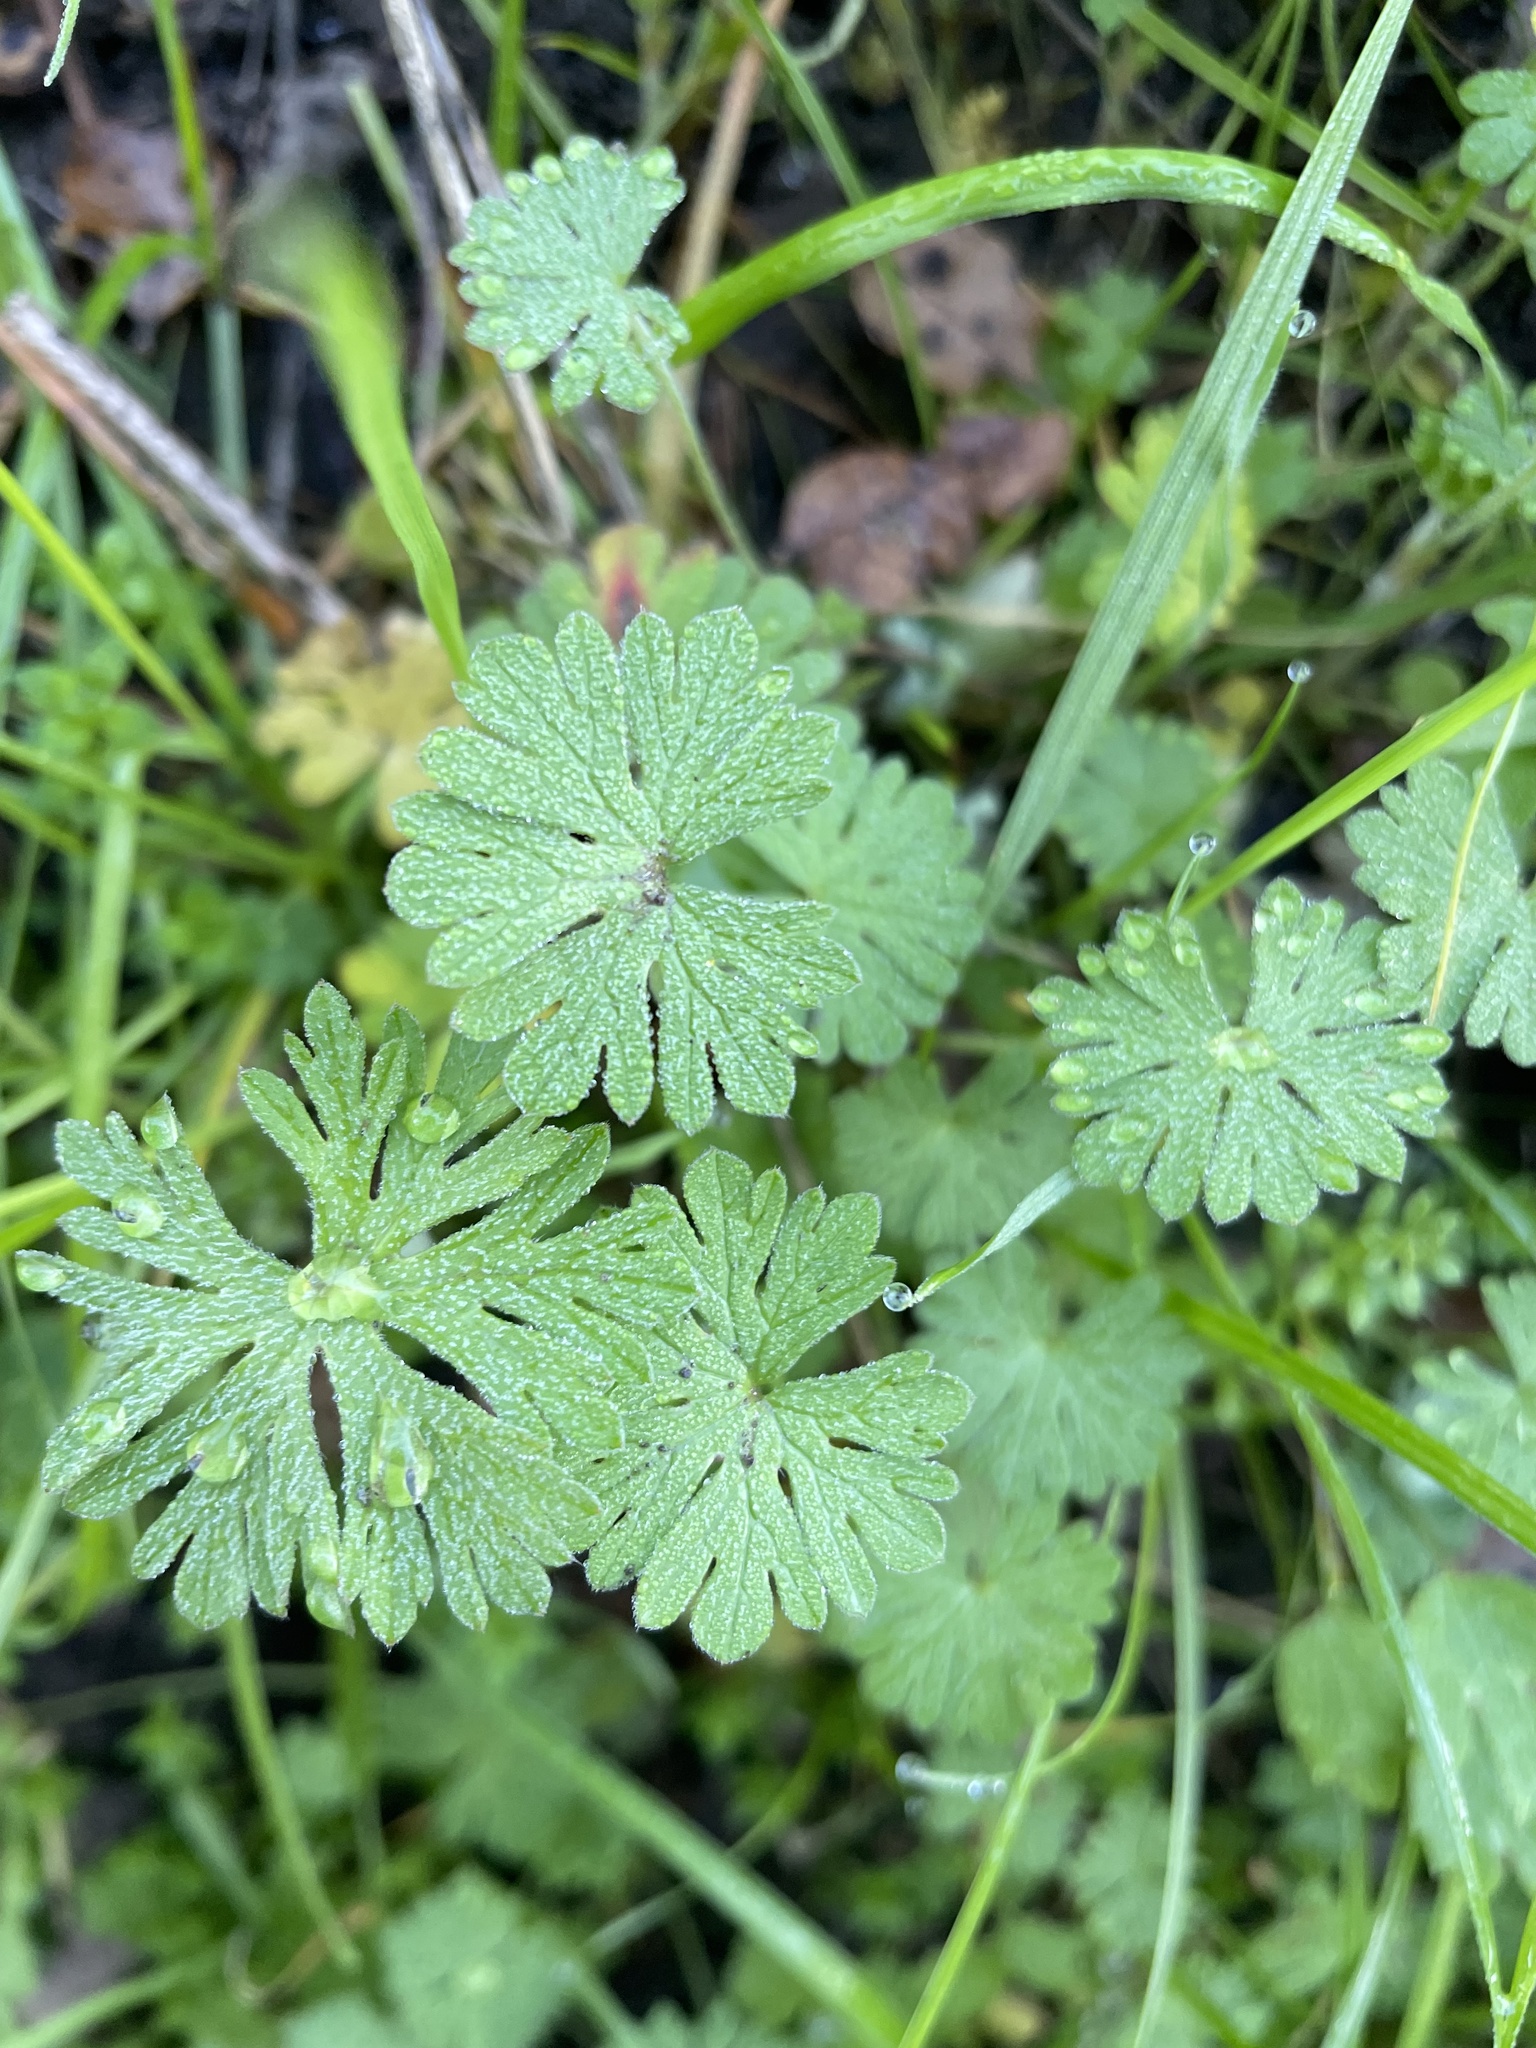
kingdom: Plantae
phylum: Tracheophyta
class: Magnoliopsida
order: Geraniales
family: Geraniaceae
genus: Geranium
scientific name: Geranium
